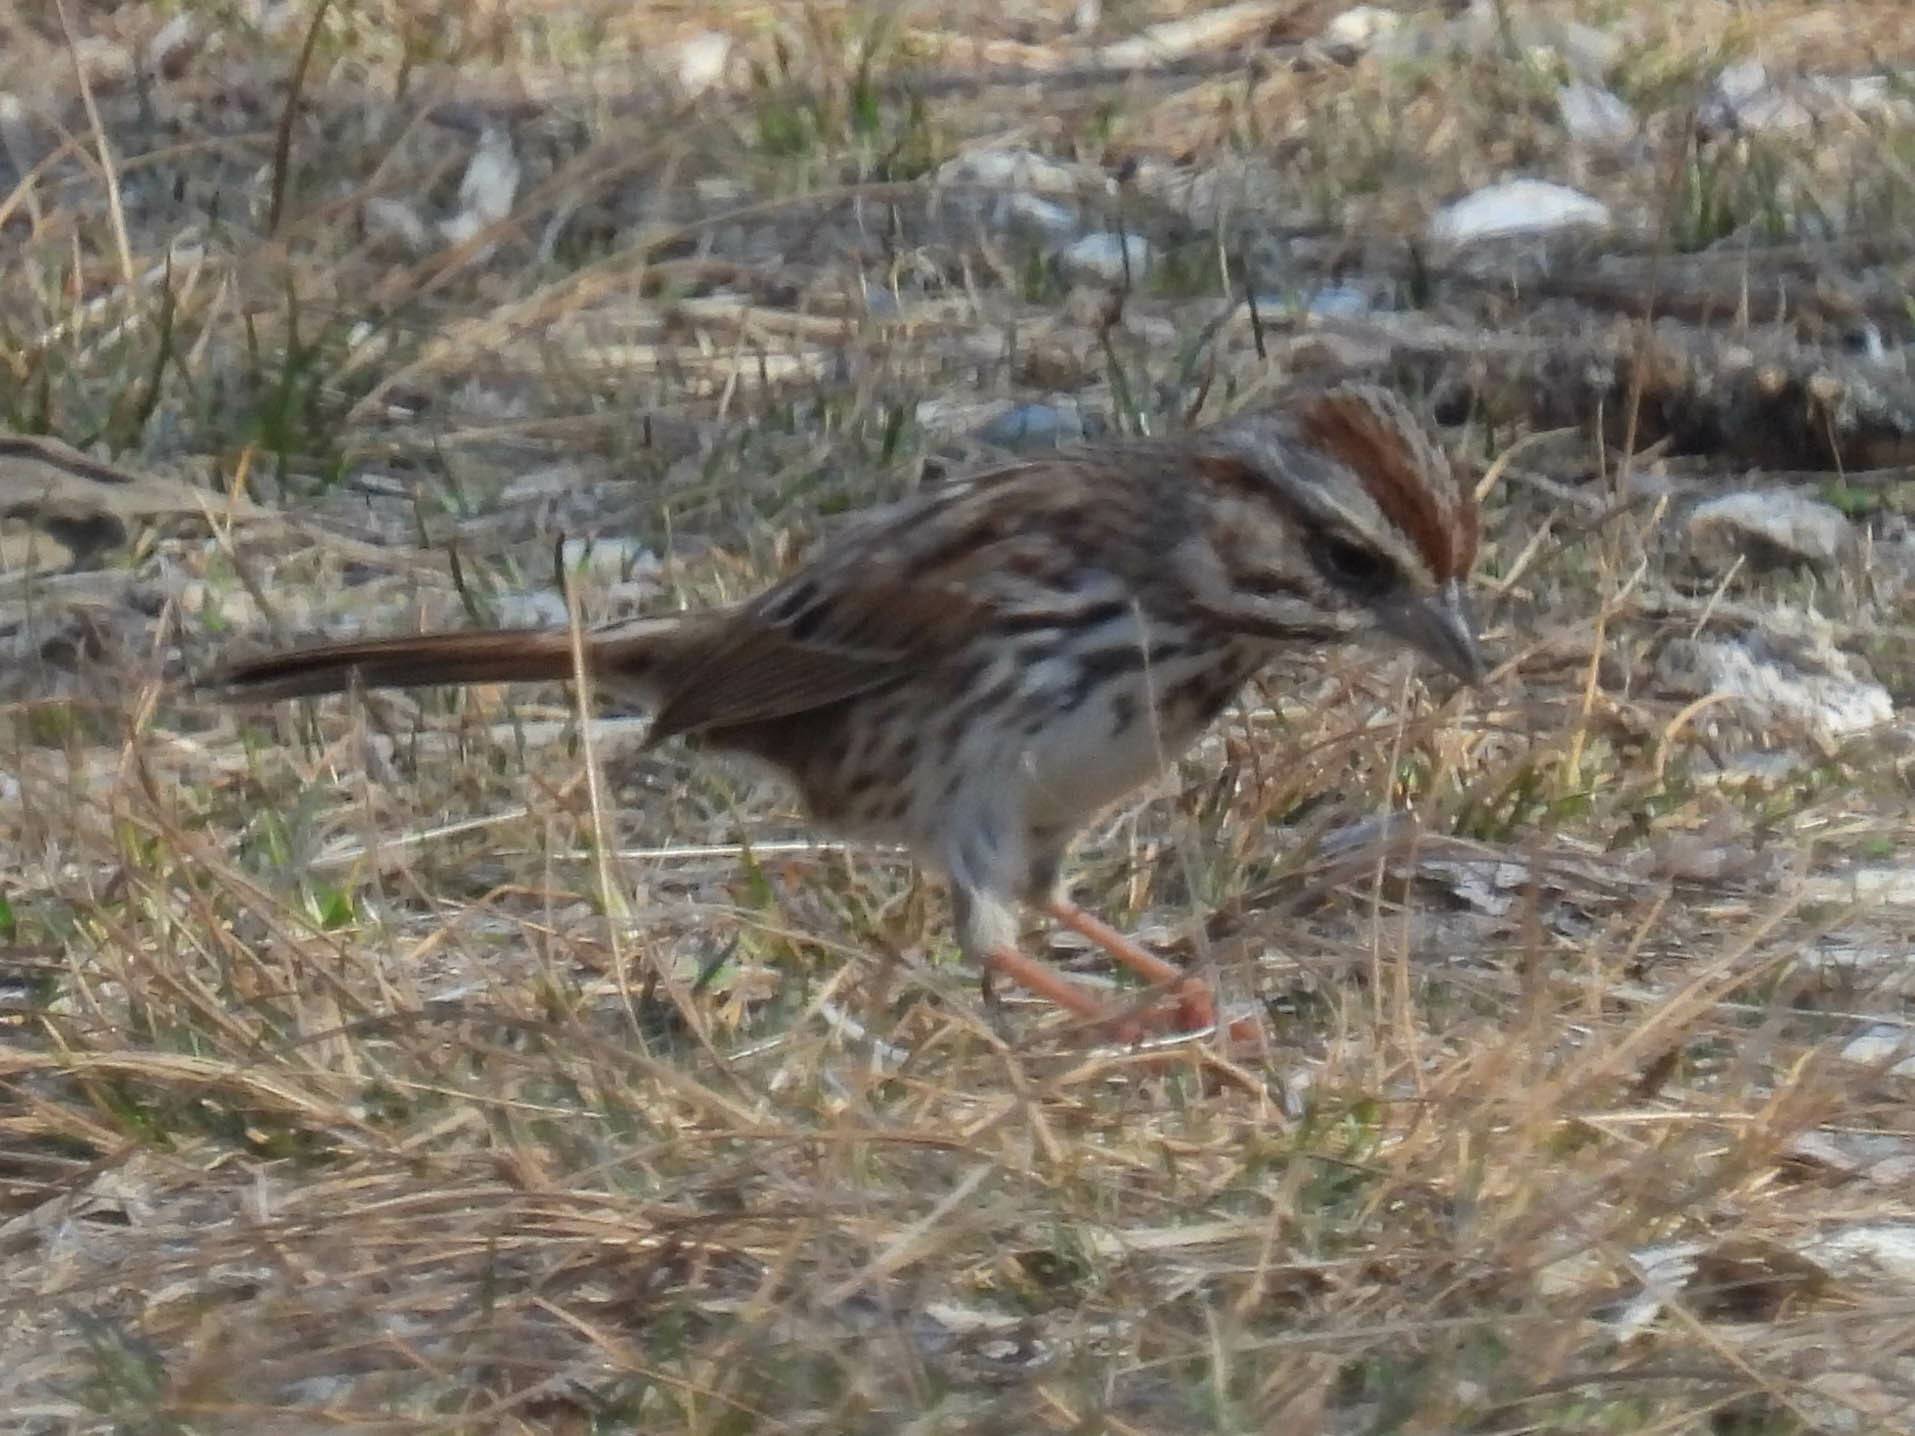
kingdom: Animalia
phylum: Chordata
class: Aves
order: Passeriformes
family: Passerellidae
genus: Melospiza
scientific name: Melospiza melodia
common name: Song sparrow
